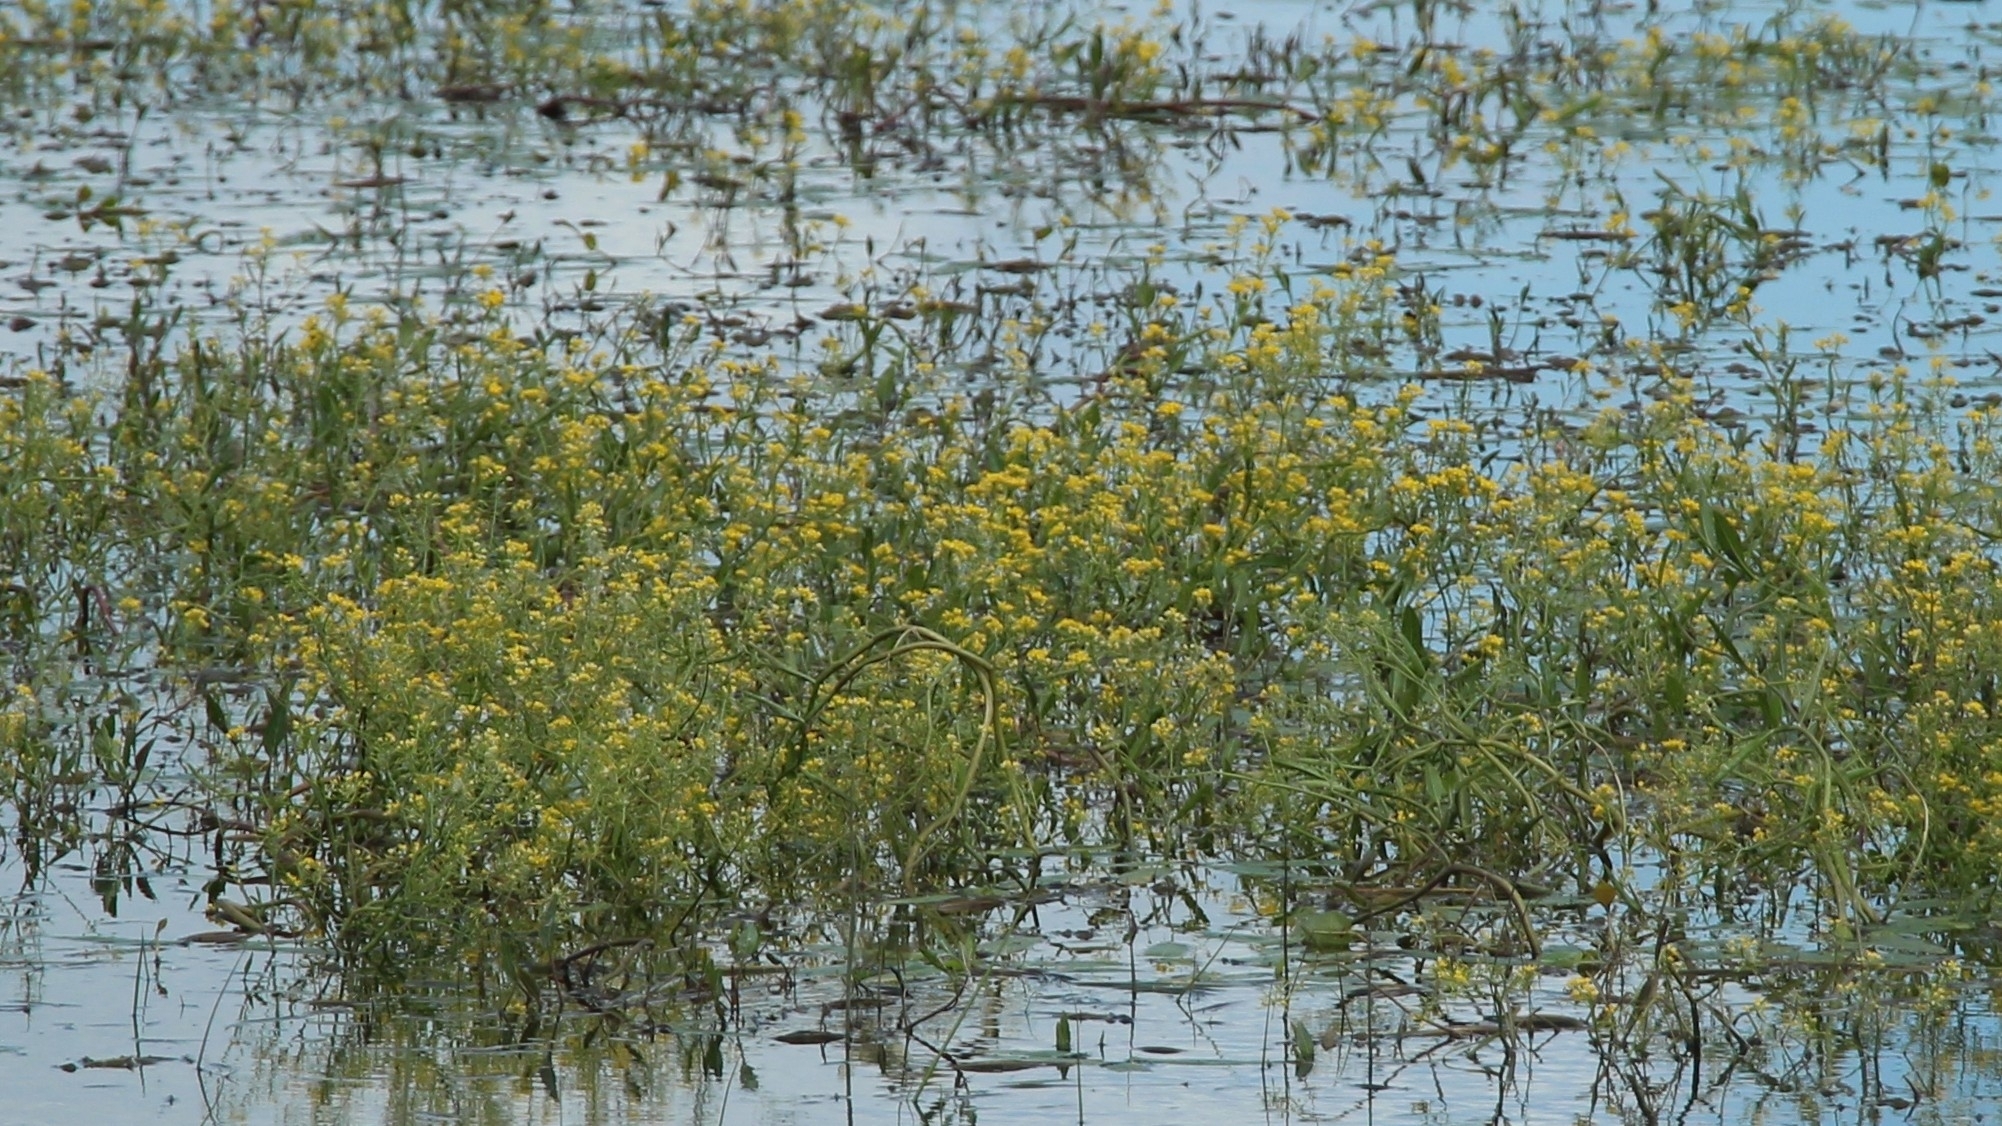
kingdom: Plantae
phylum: Tracheophyta
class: Magnoliopsida
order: Brassicales
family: Brassicaceae
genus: Rorippa
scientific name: Rorippa amphibia
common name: Great yellow-cress
